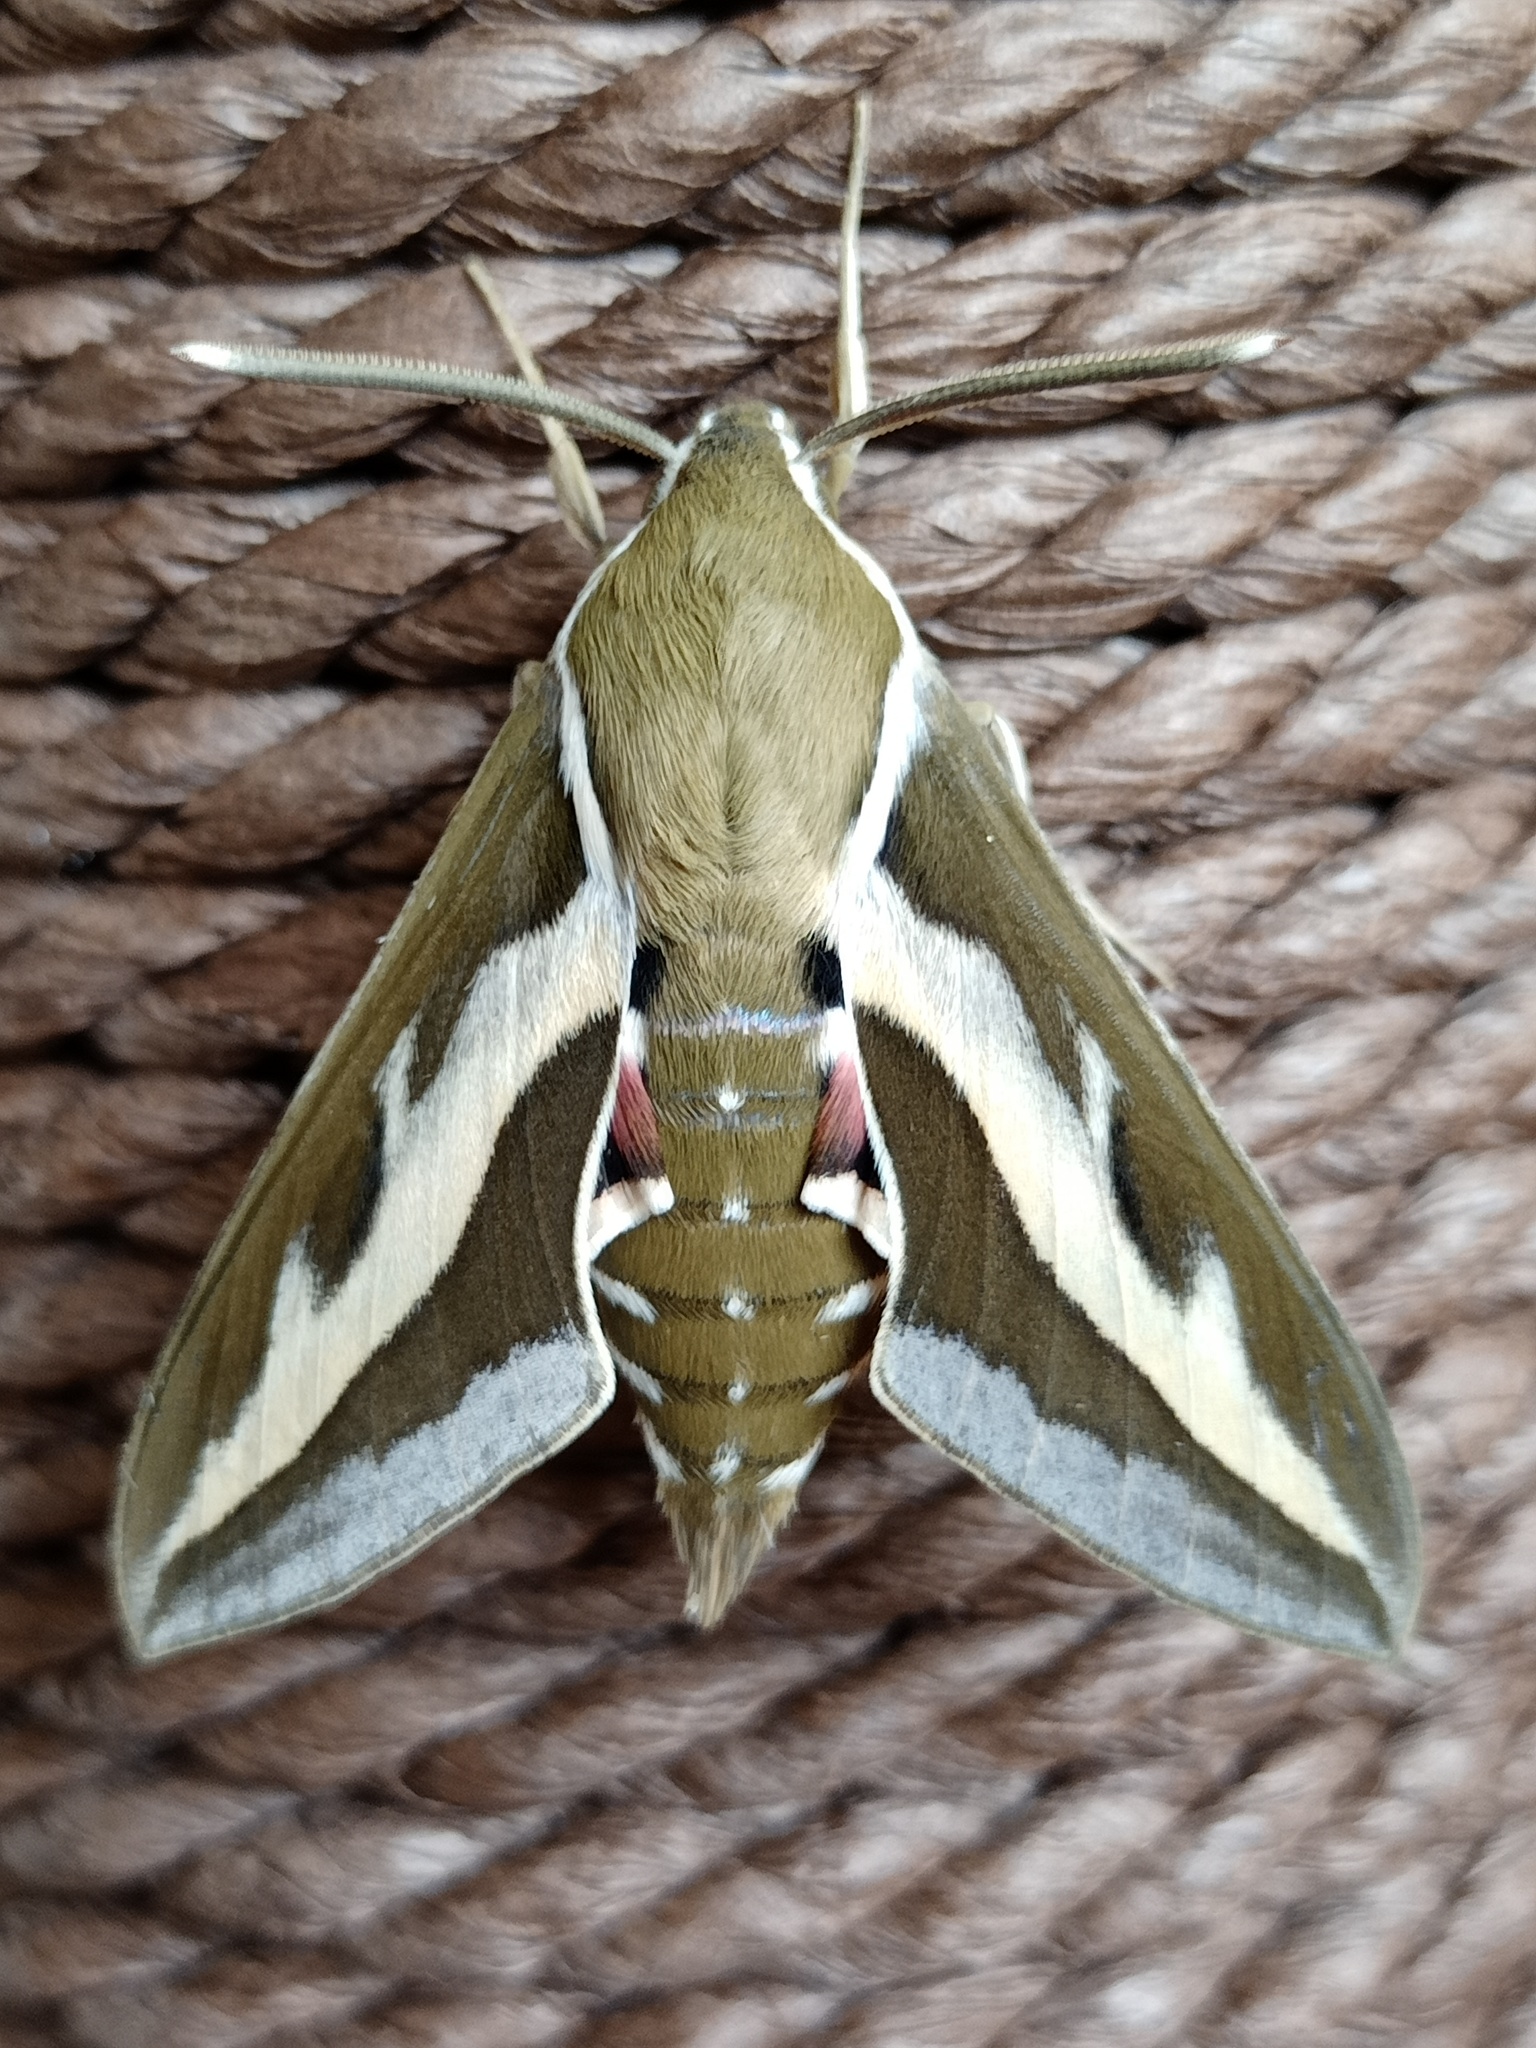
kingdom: Animalia
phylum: Arthropoda
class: Insecta
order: Lepidoptera
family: Sphingidae
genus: Hyles
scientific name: Hyles gallii
